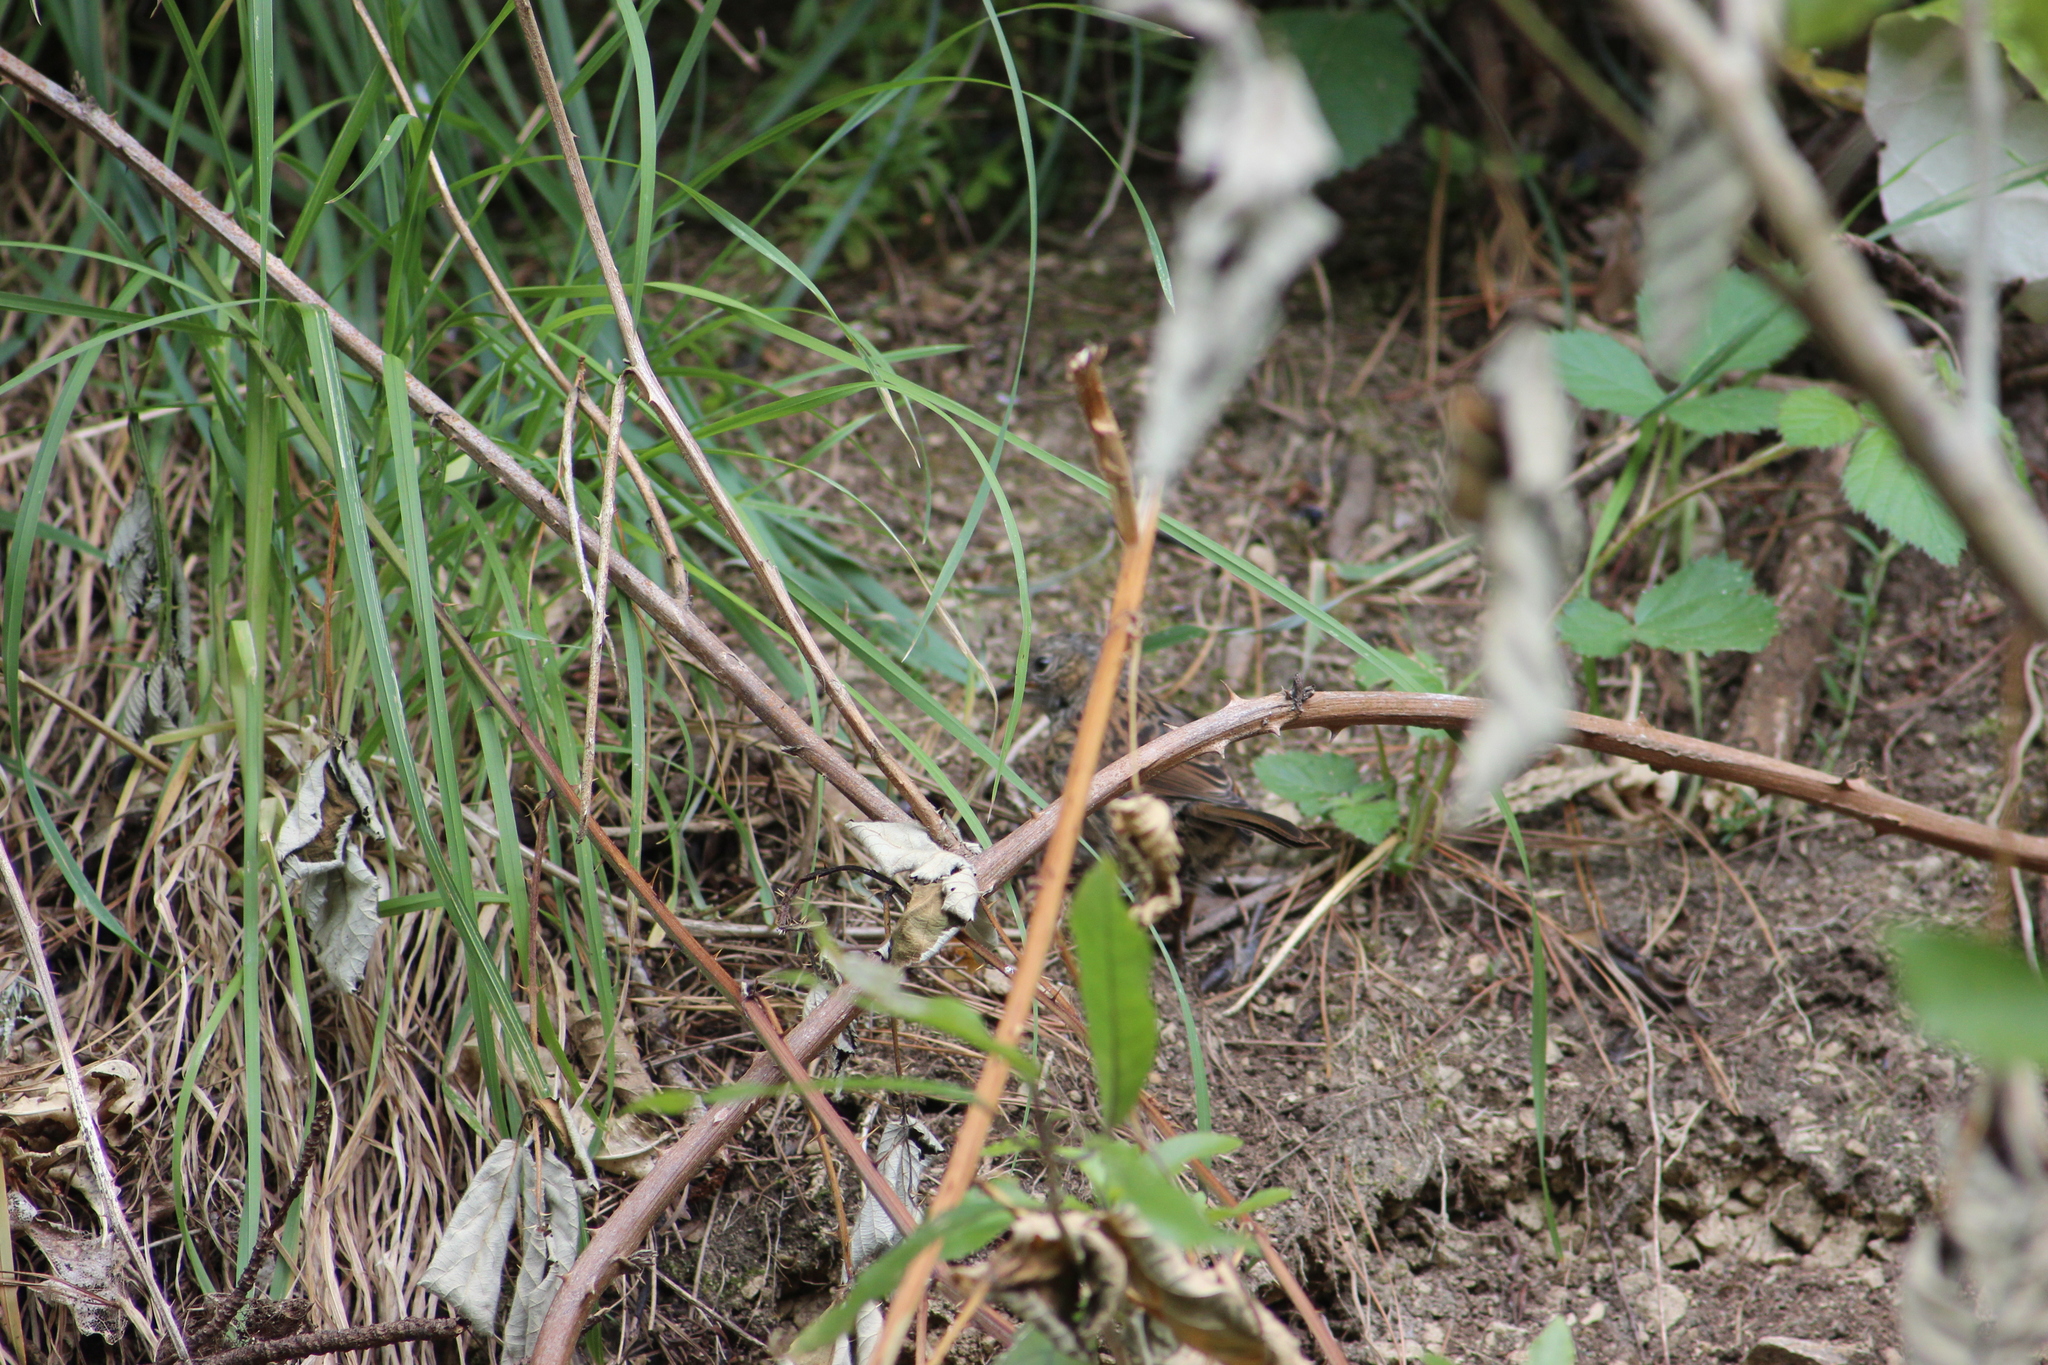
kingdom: Animalia
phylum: Chordata
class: Aves
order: Passeriformes
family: Prunellidae
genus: Prunella
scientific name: Prunella modularis
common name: Dunnock
